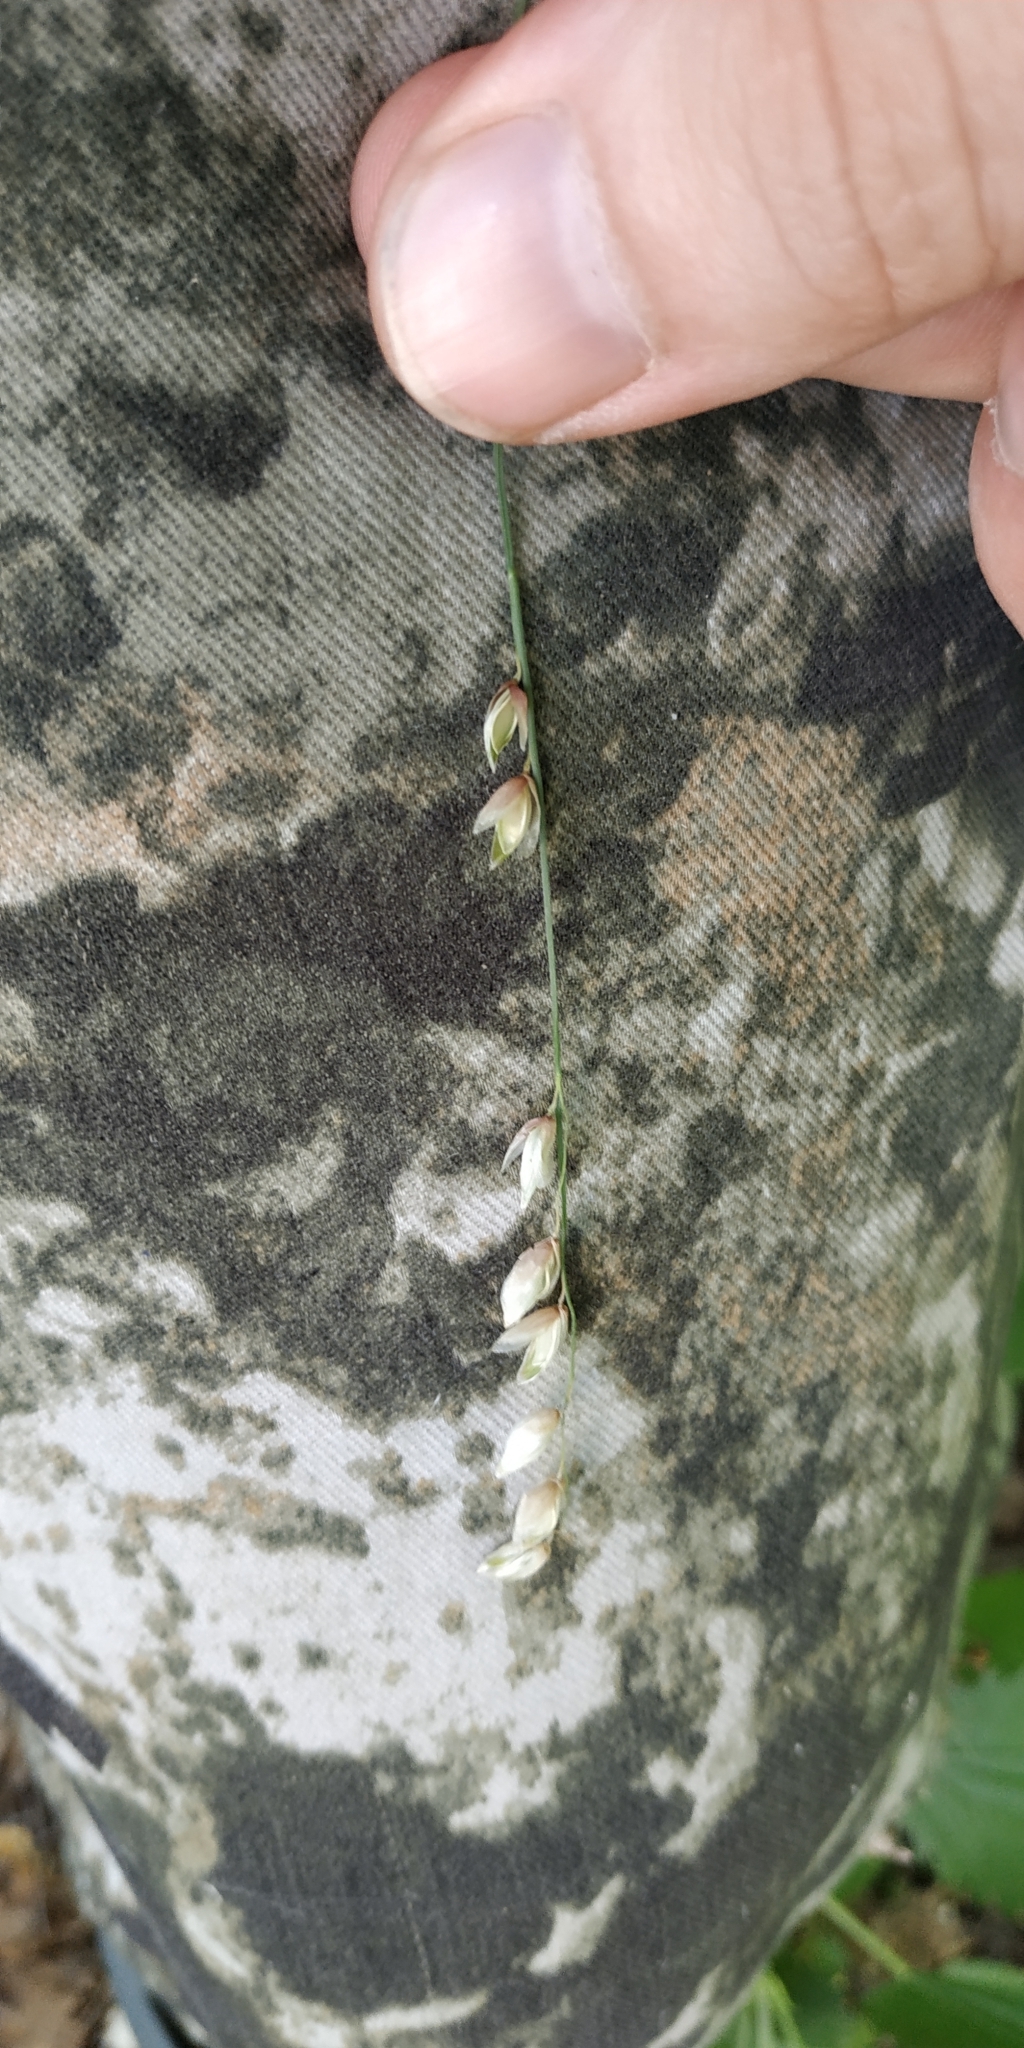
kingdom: Plantae
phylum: Tracheophyta
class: Liliopsida
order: Poales
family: Poaceae
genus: Melica
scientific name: Melica nutans
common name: Mountain melick
